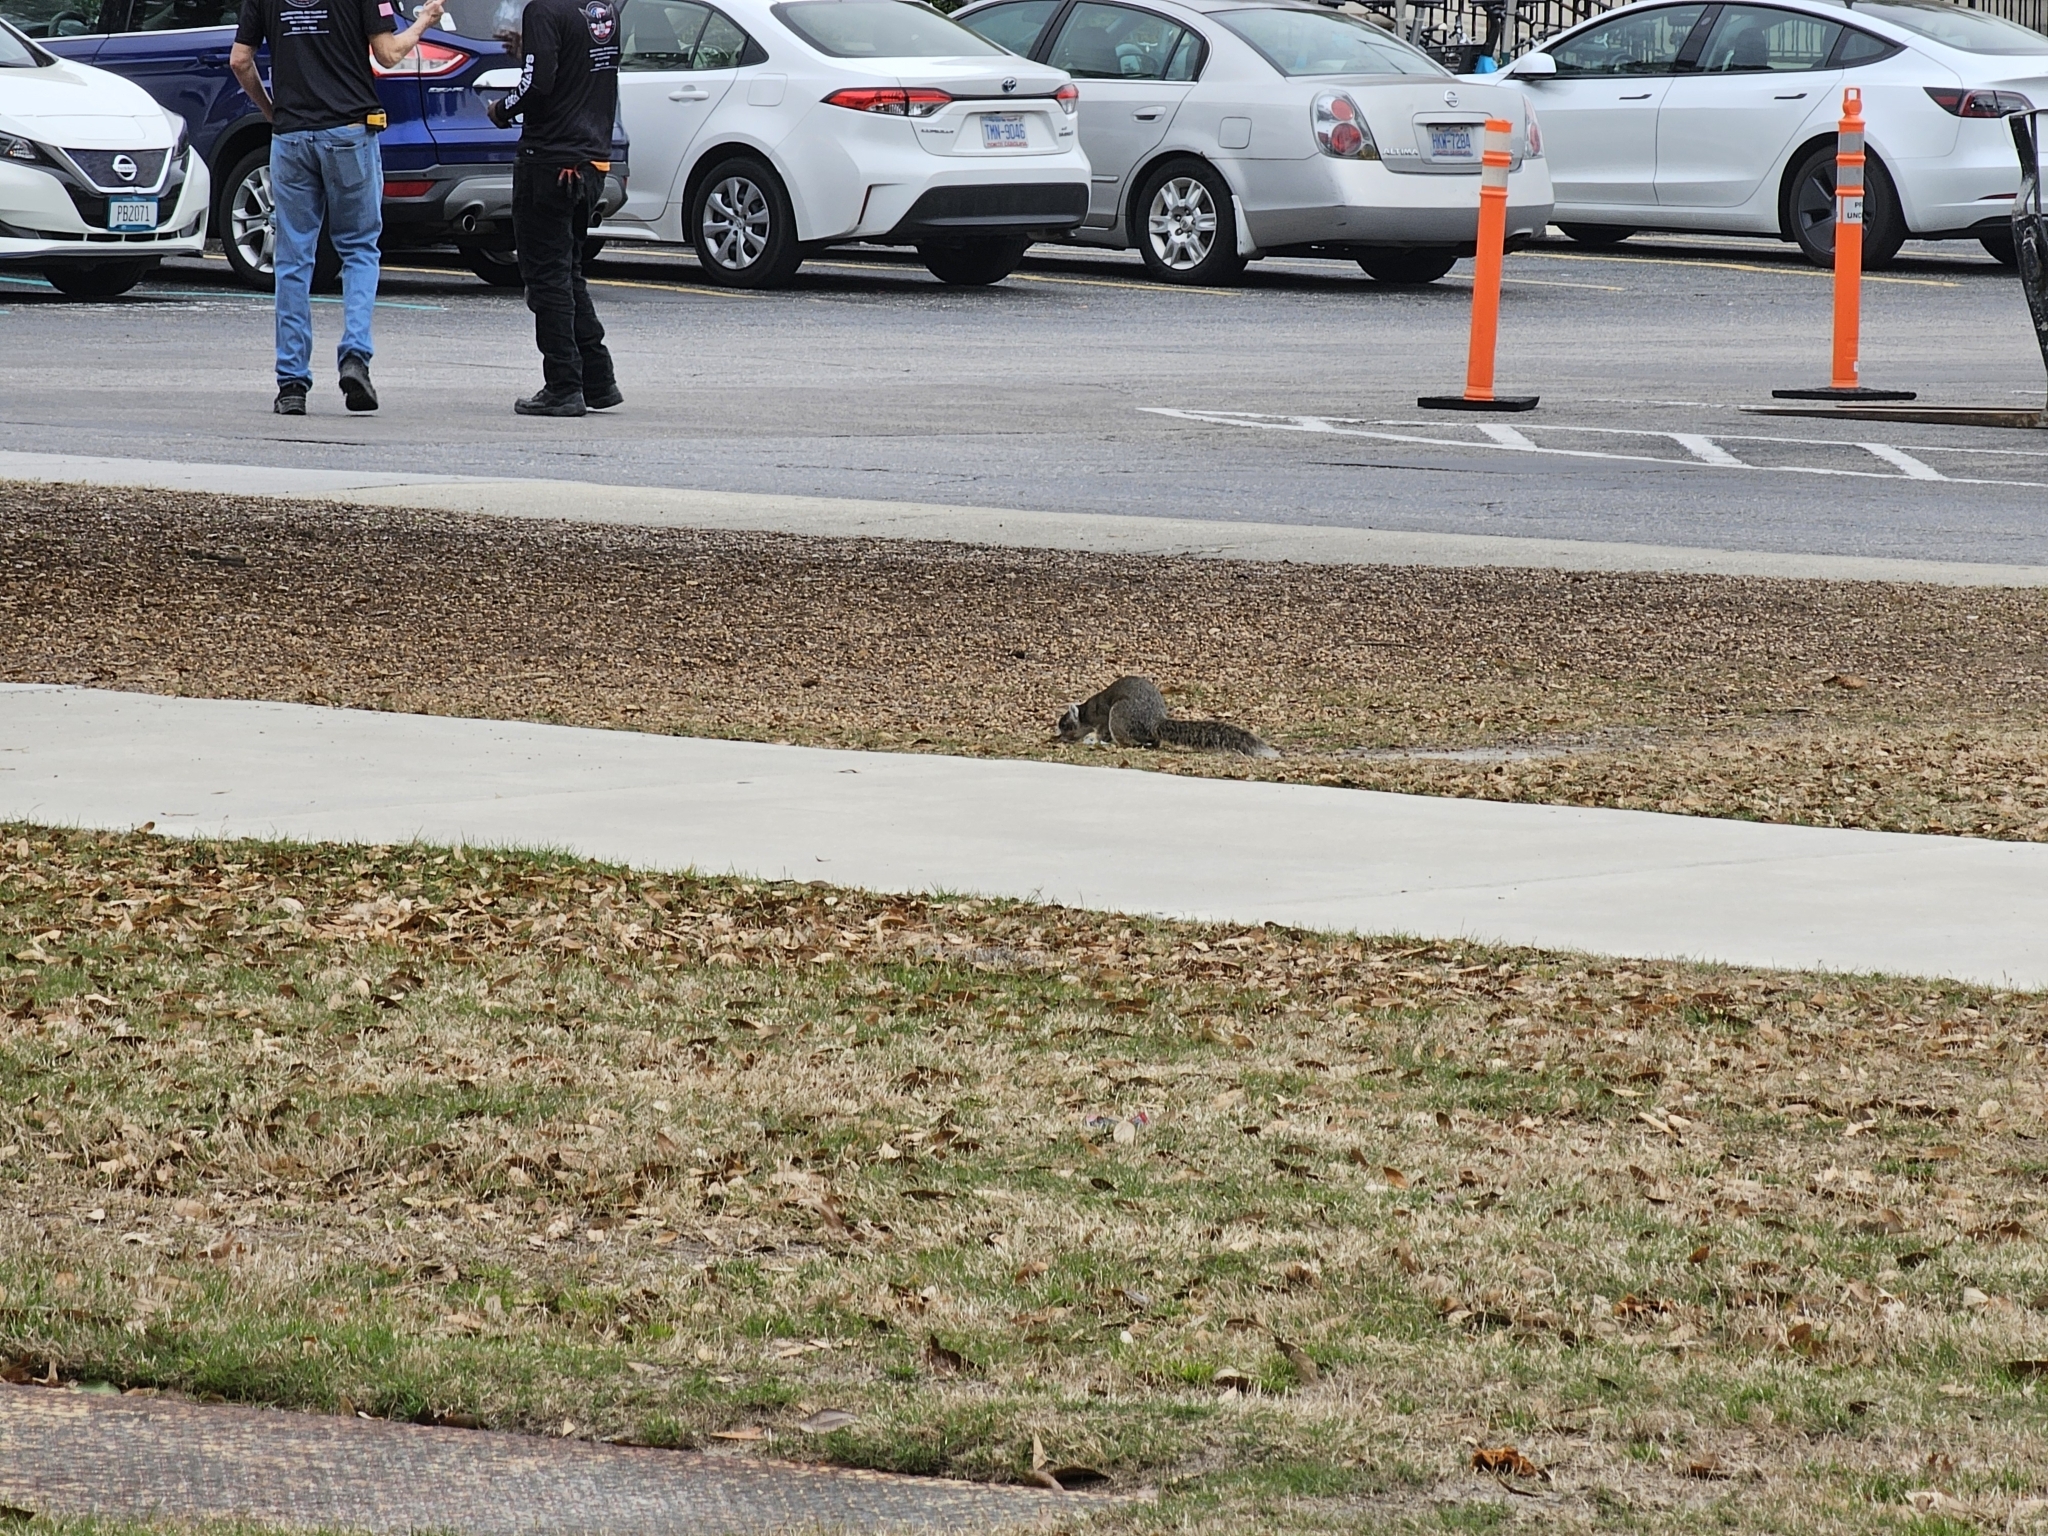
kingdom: Animalia
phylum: Chordata
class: Mammalia
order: Rodentia
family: Sciuridae
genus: Sciurus
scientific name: Sciurus niger
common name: Fox squirrel
